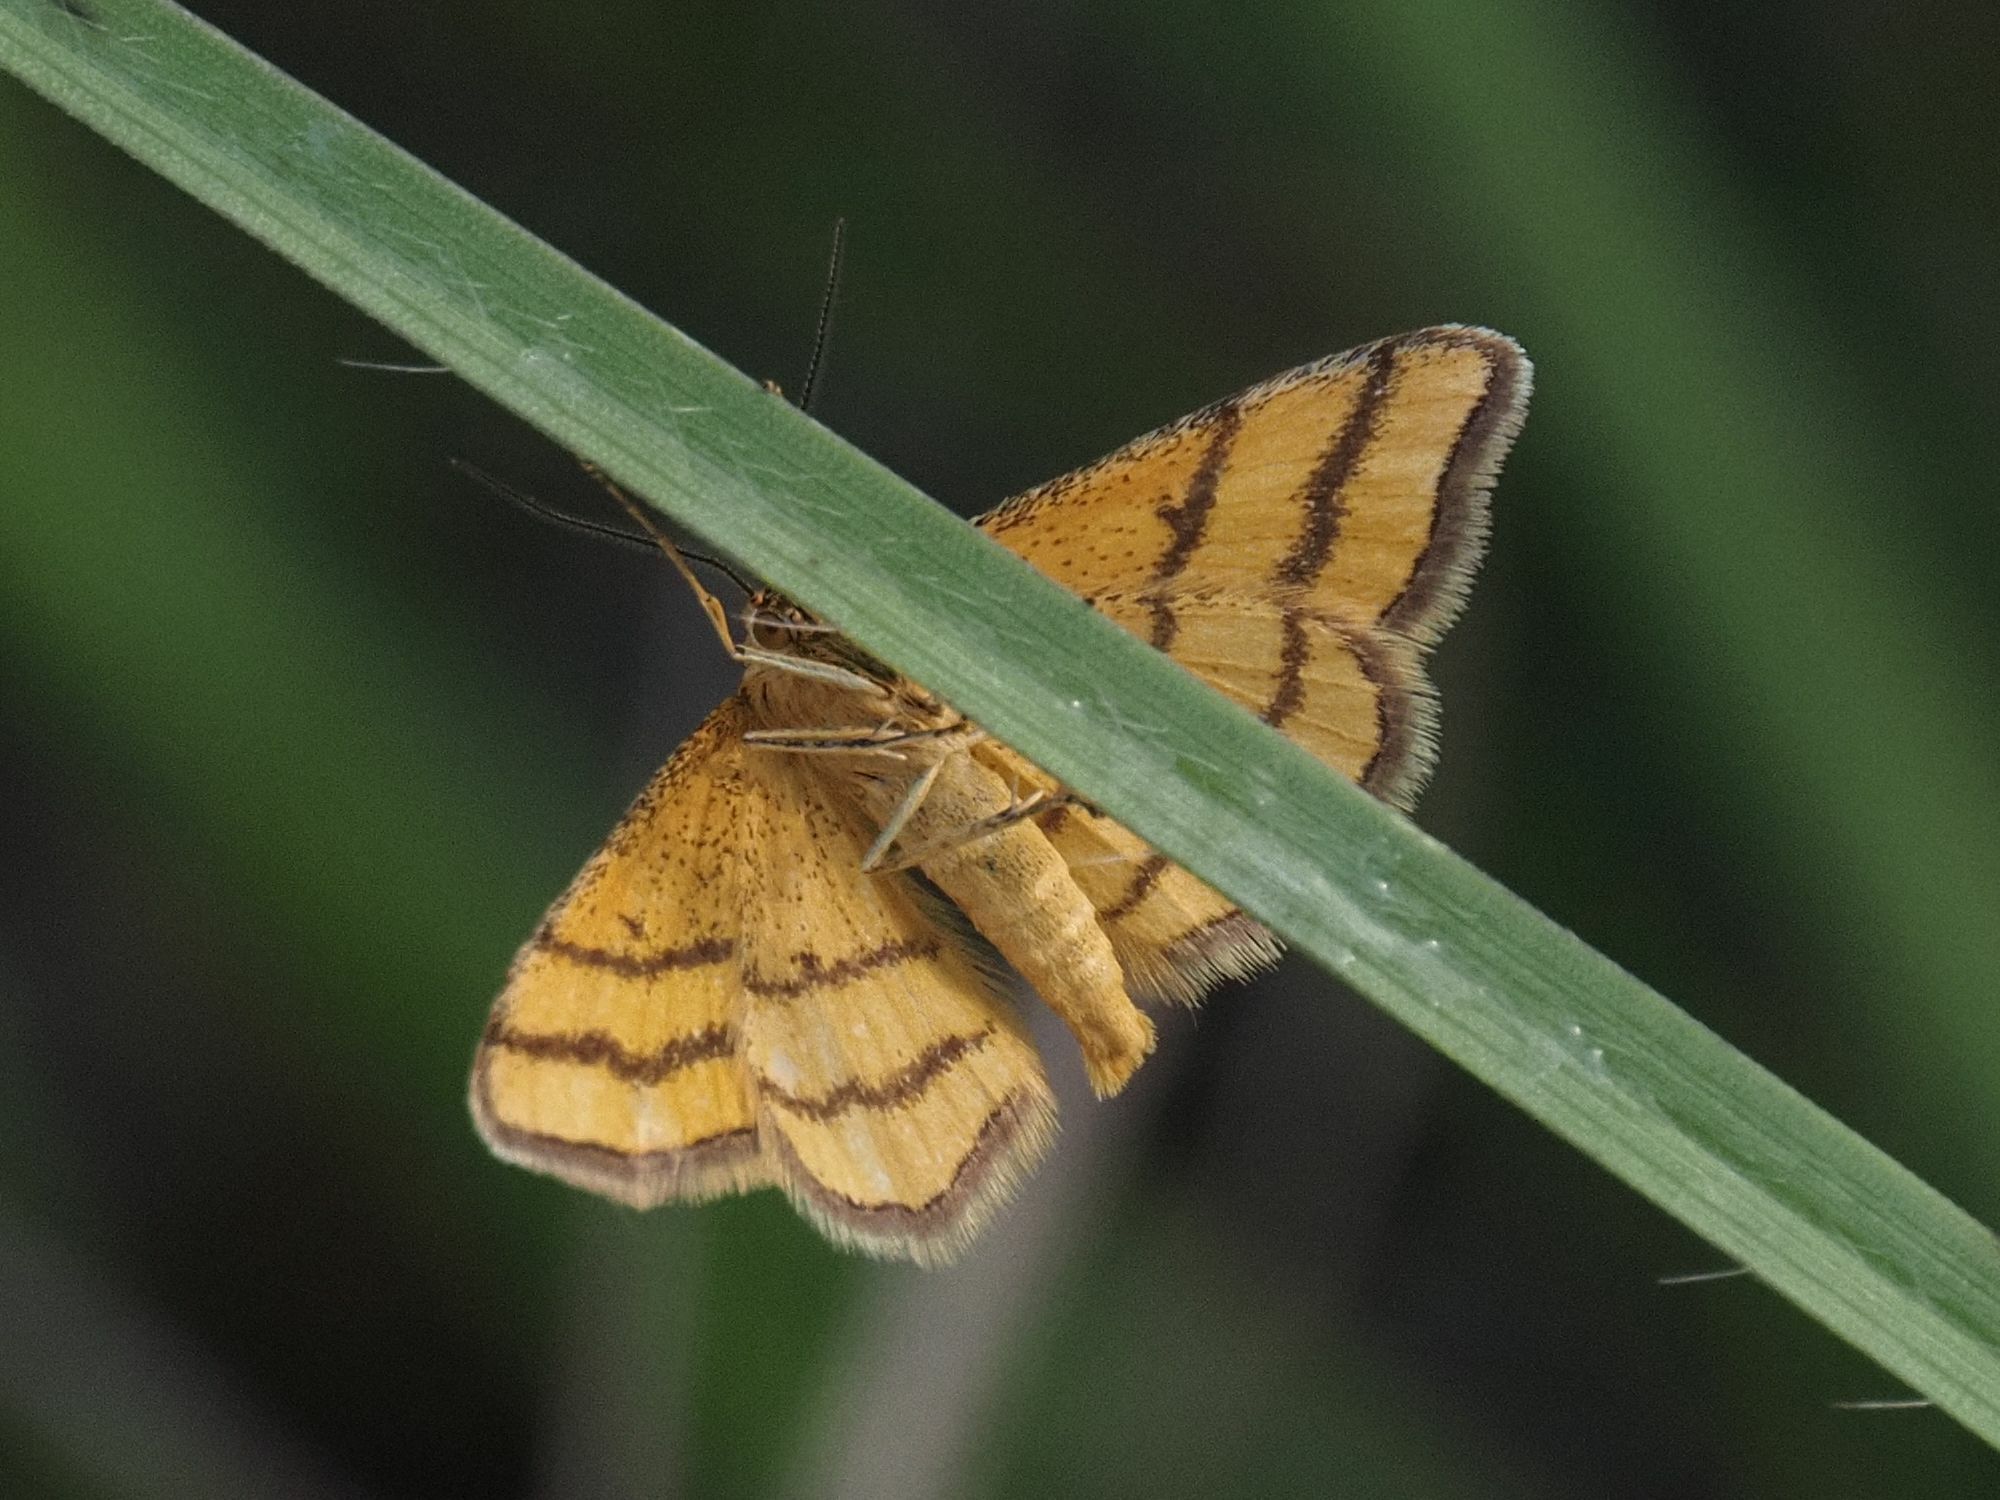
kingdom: Animalia
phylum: Arthropoda
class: Insecta
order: Lepidoptera
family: Geometridae
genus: Idaea
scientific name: Idaea aureolaria
